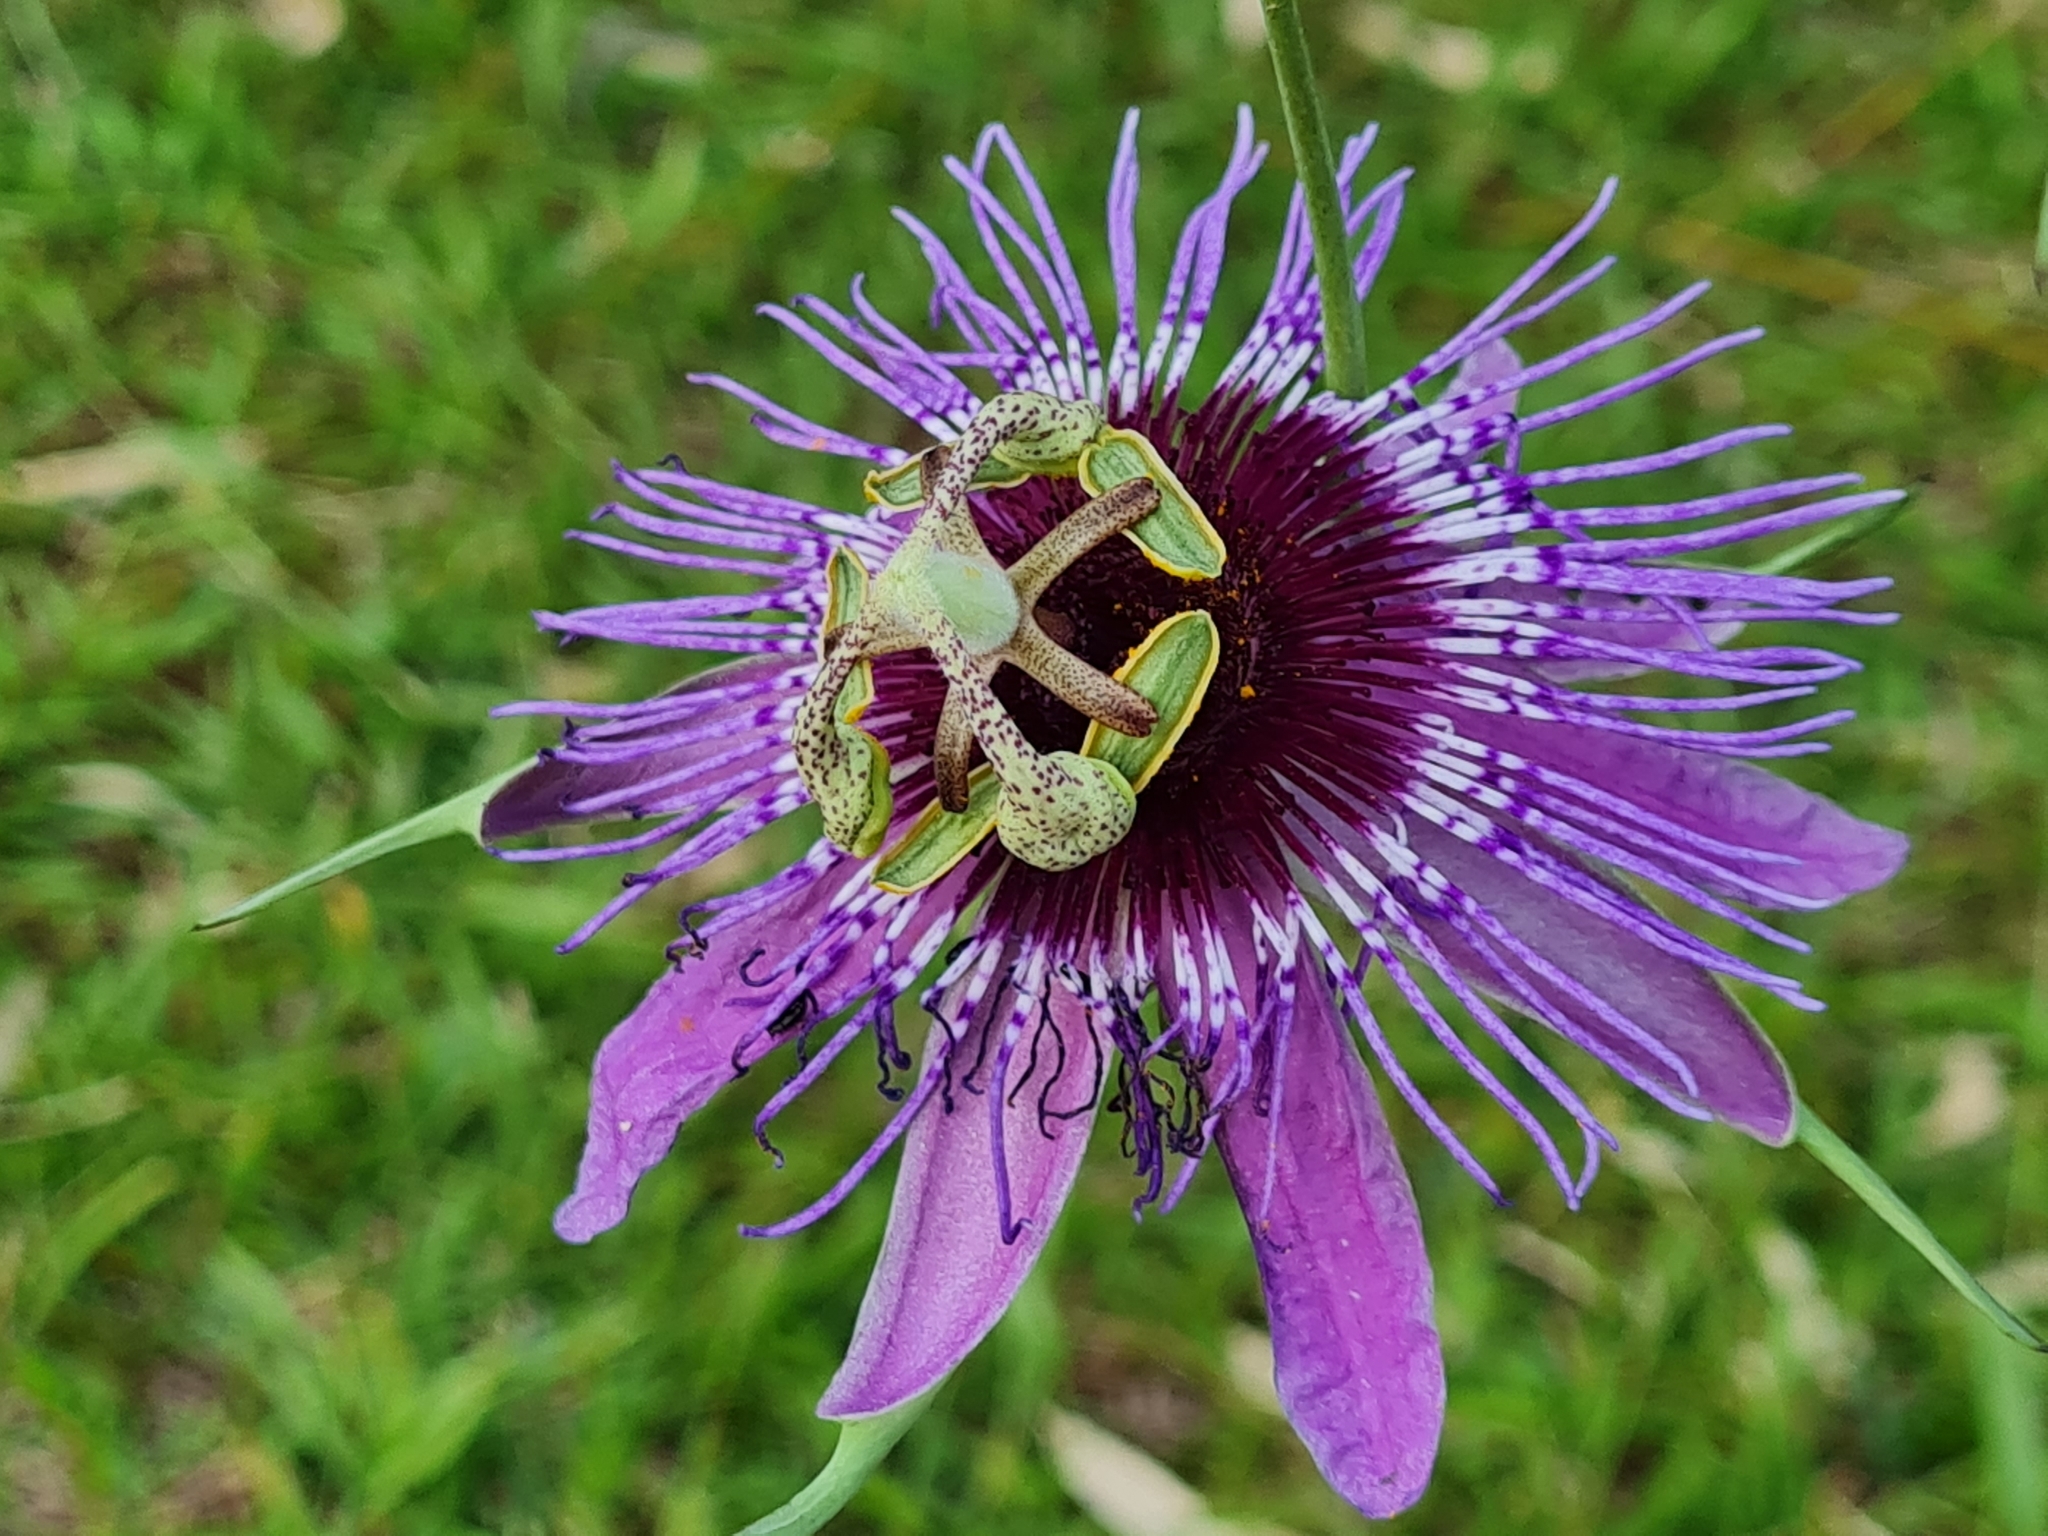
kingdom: Plantae
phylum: Tracheophyta
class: Magnoliopsida
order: Malpighiales
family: Passifloraceae
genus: Passiflora
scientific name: Passiflora amethystina
